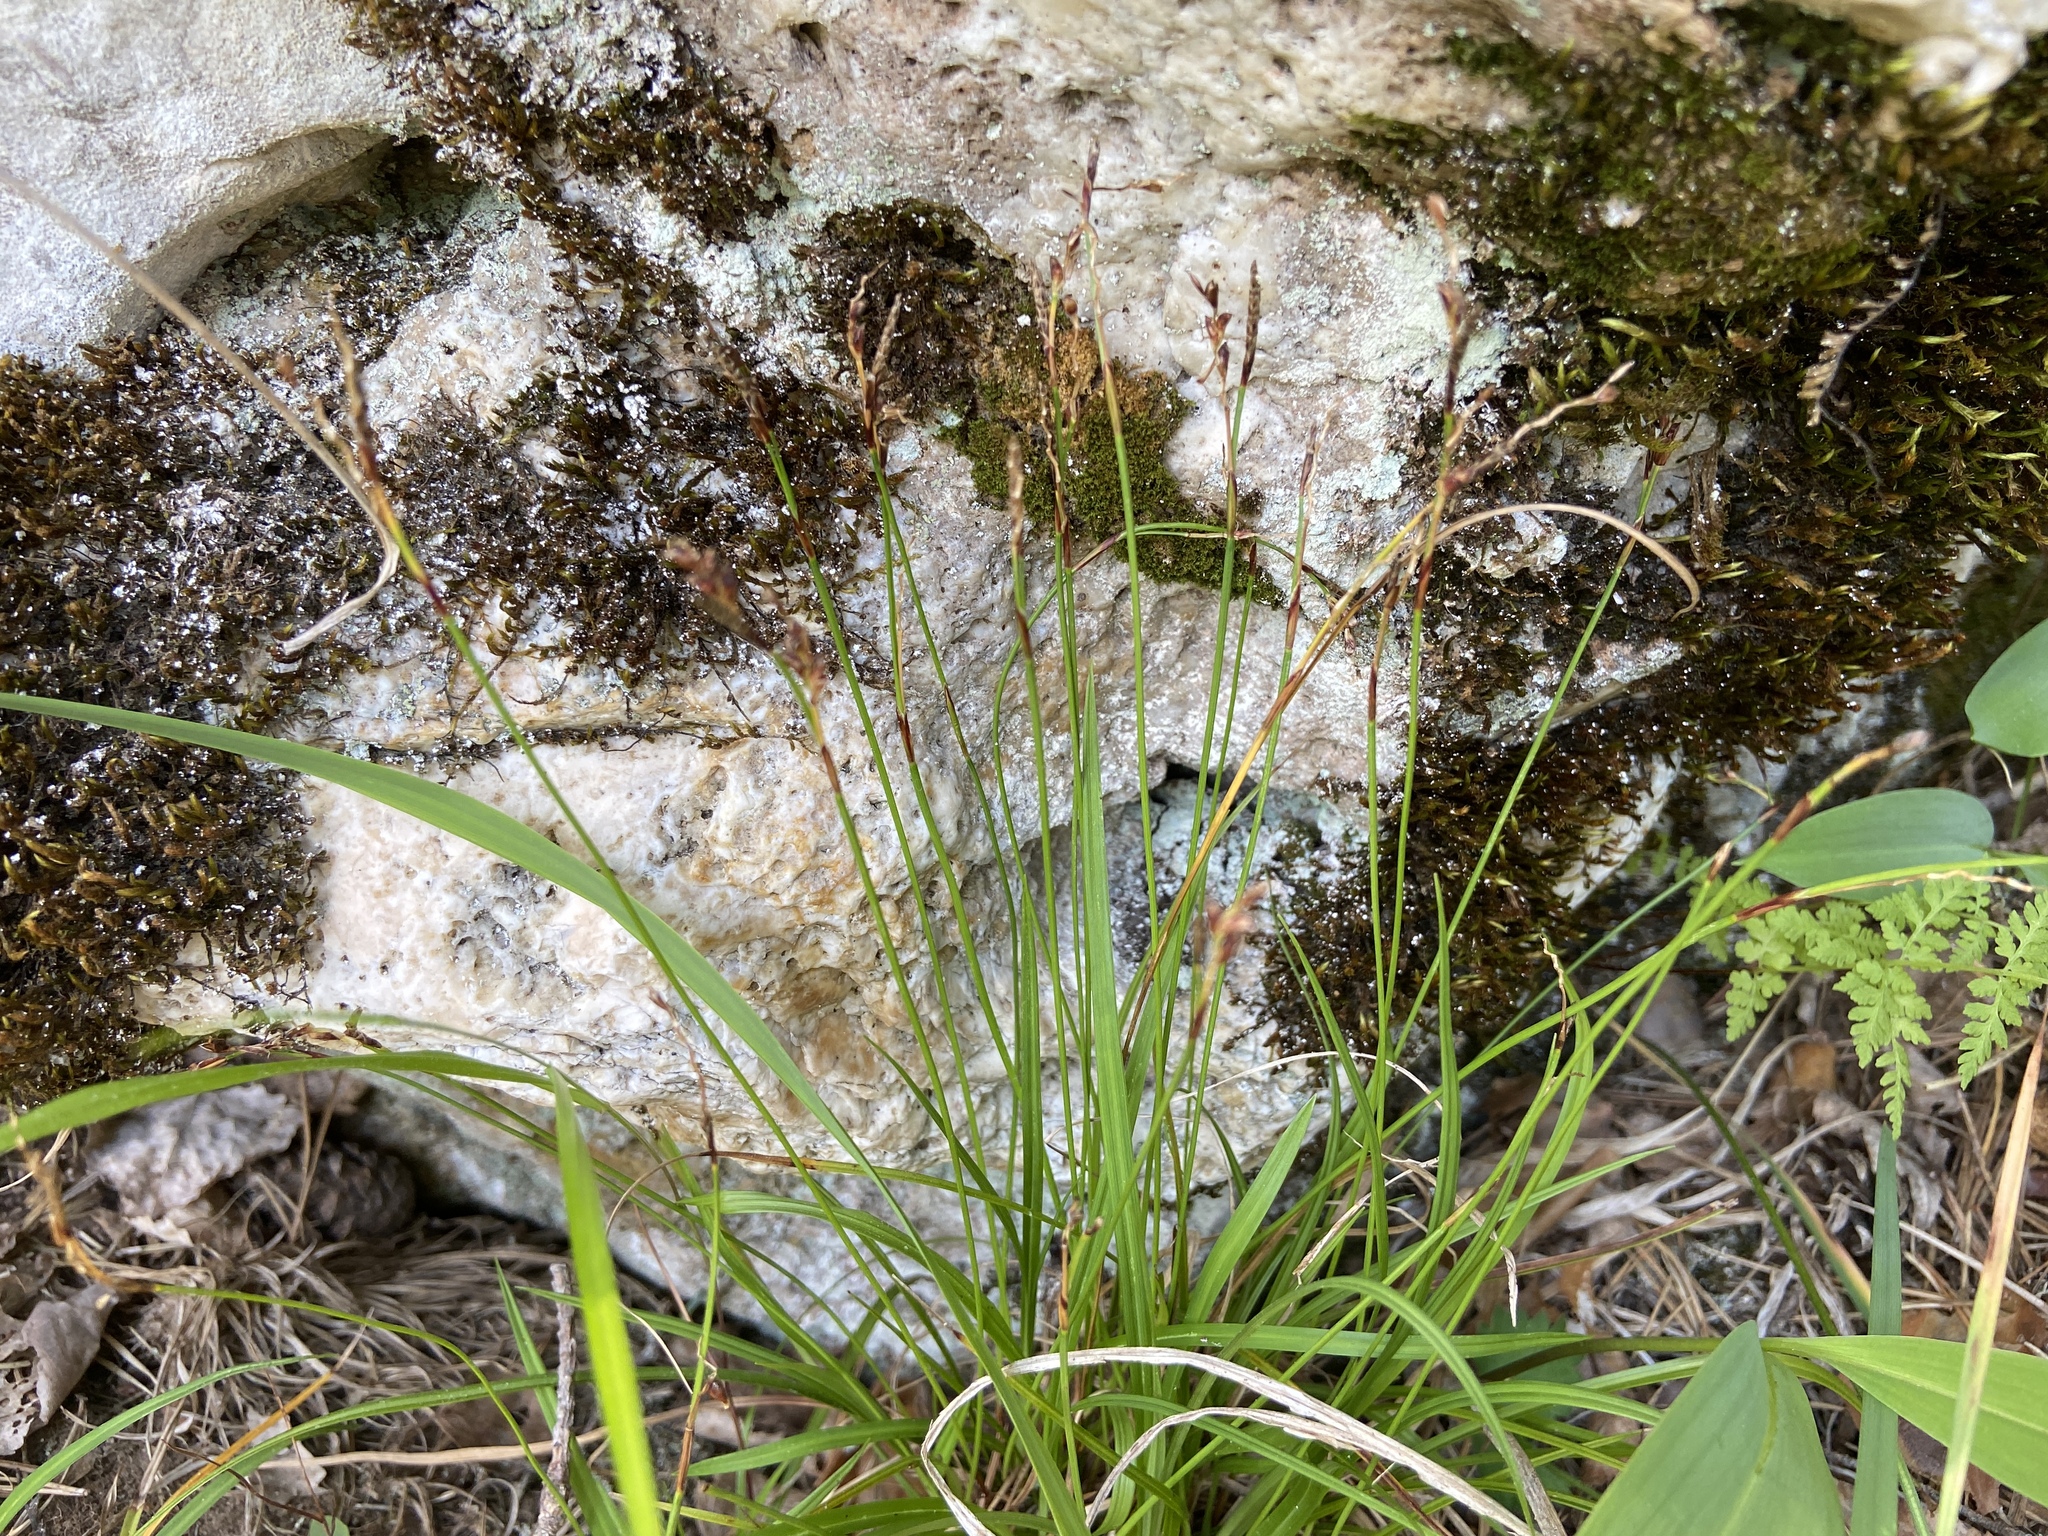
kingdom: Plantae
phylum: Tracheophyta
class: Liliopsida
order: Poales
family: Cyperaceae
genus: Carex
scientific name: Carex digitata
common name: Fingered sedge
